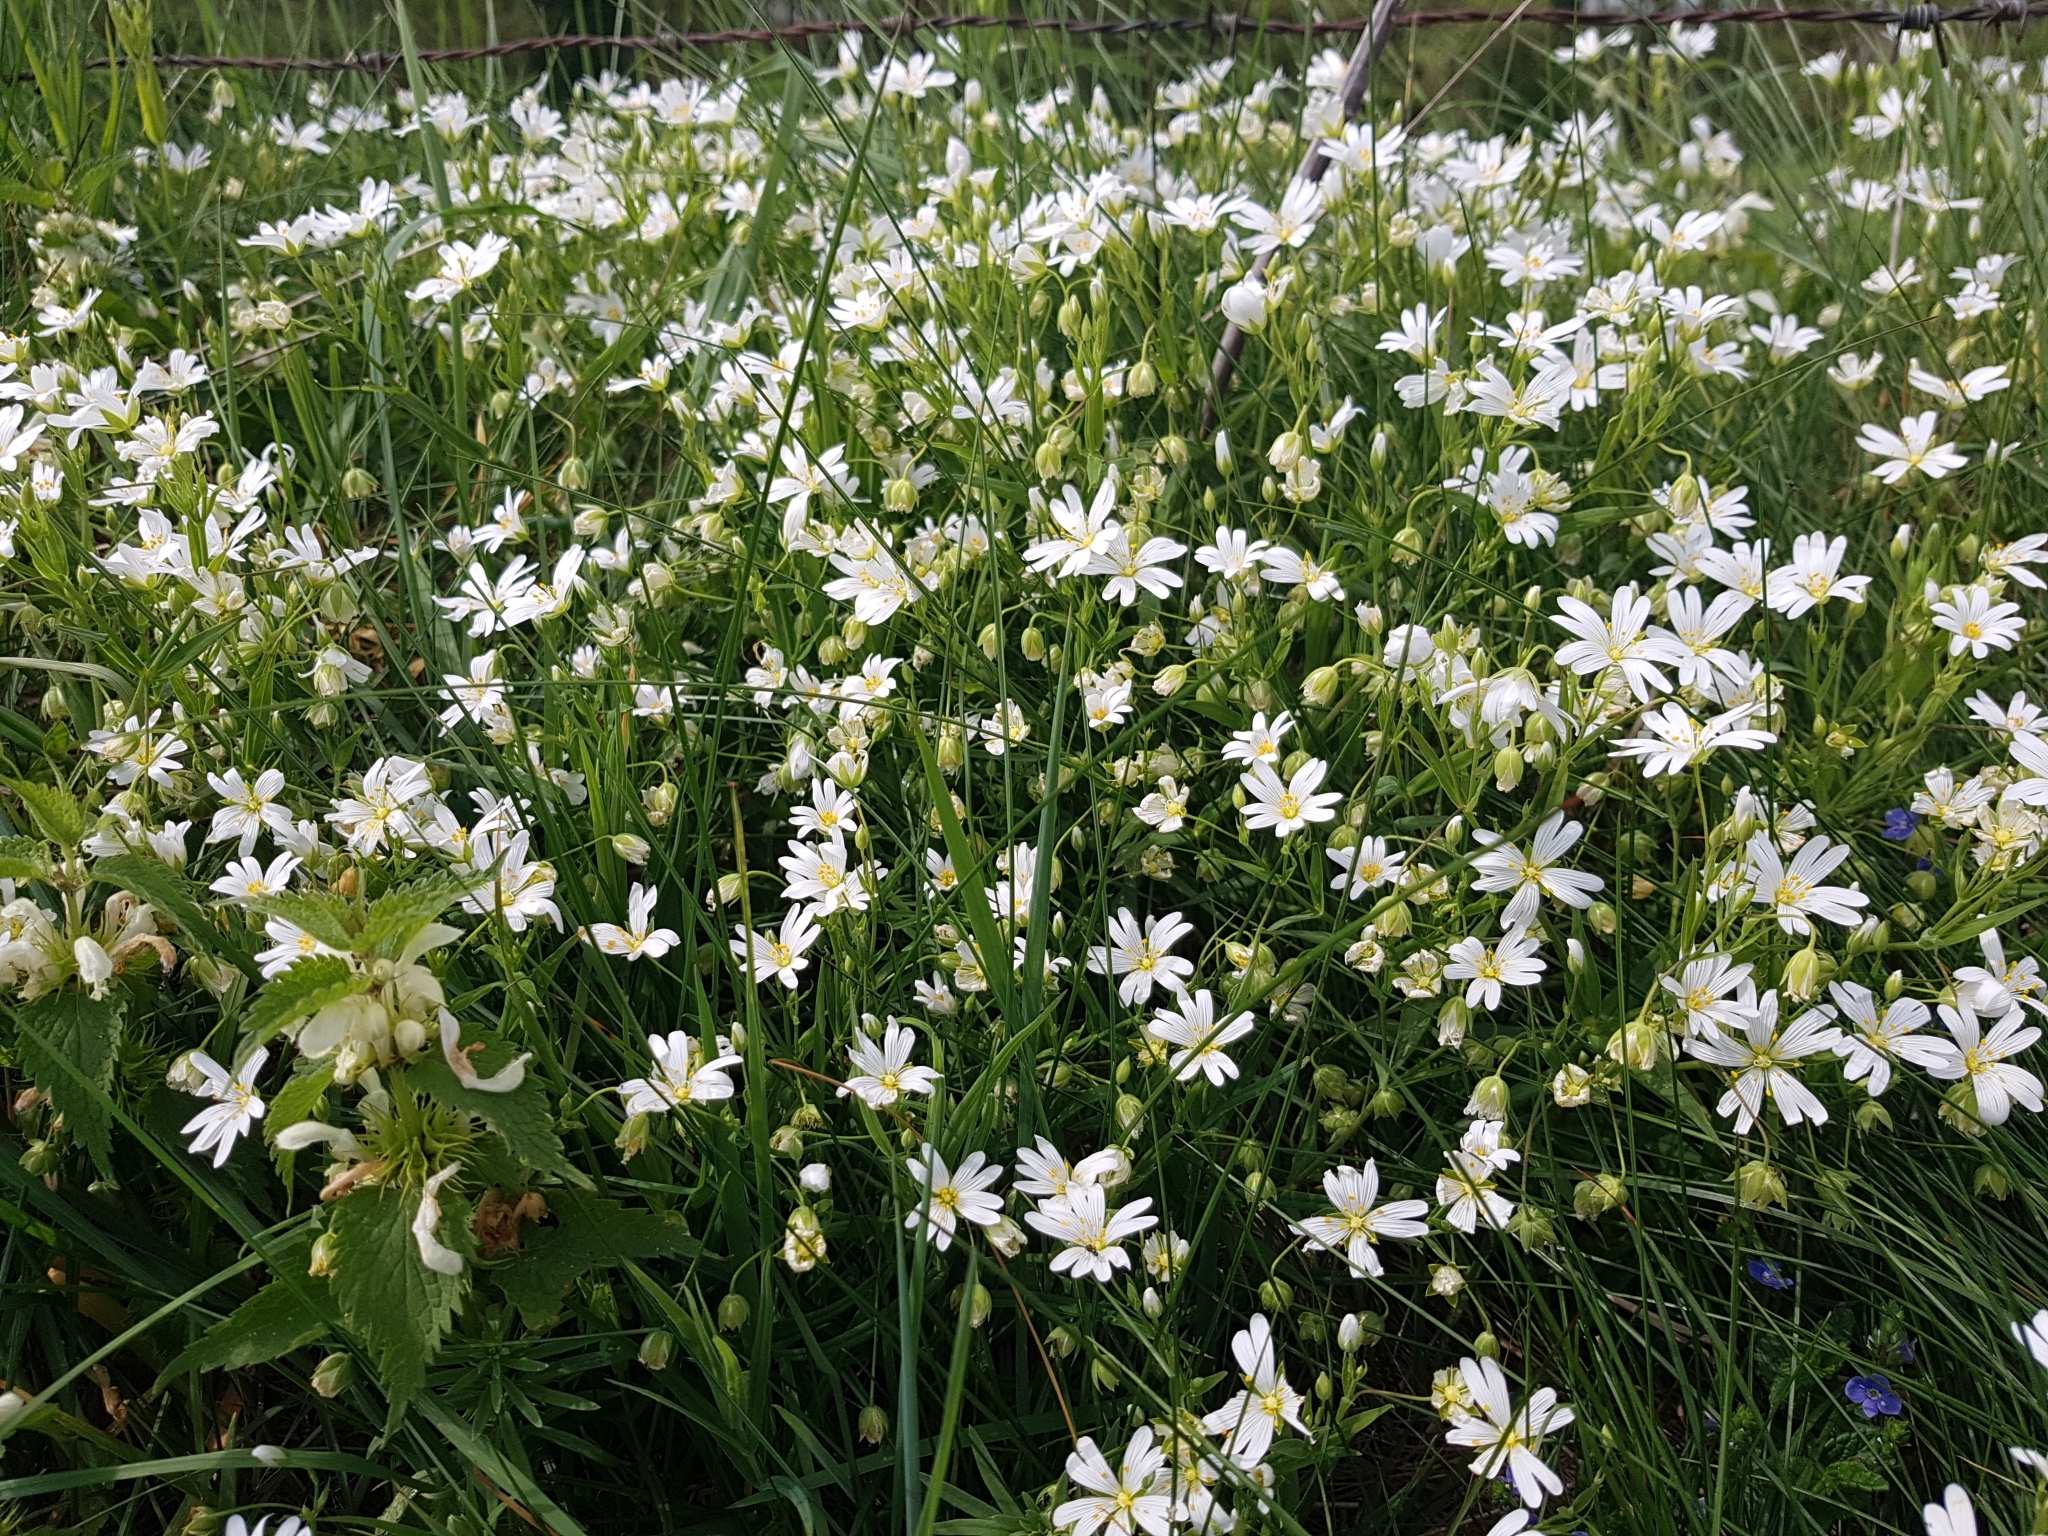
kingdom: Plantae
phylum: Tracheophyta
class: Magnoliopsida
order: Caryophyllales
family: Caryophyllaceae
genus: Rabelera
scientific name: Rabelera holostea
